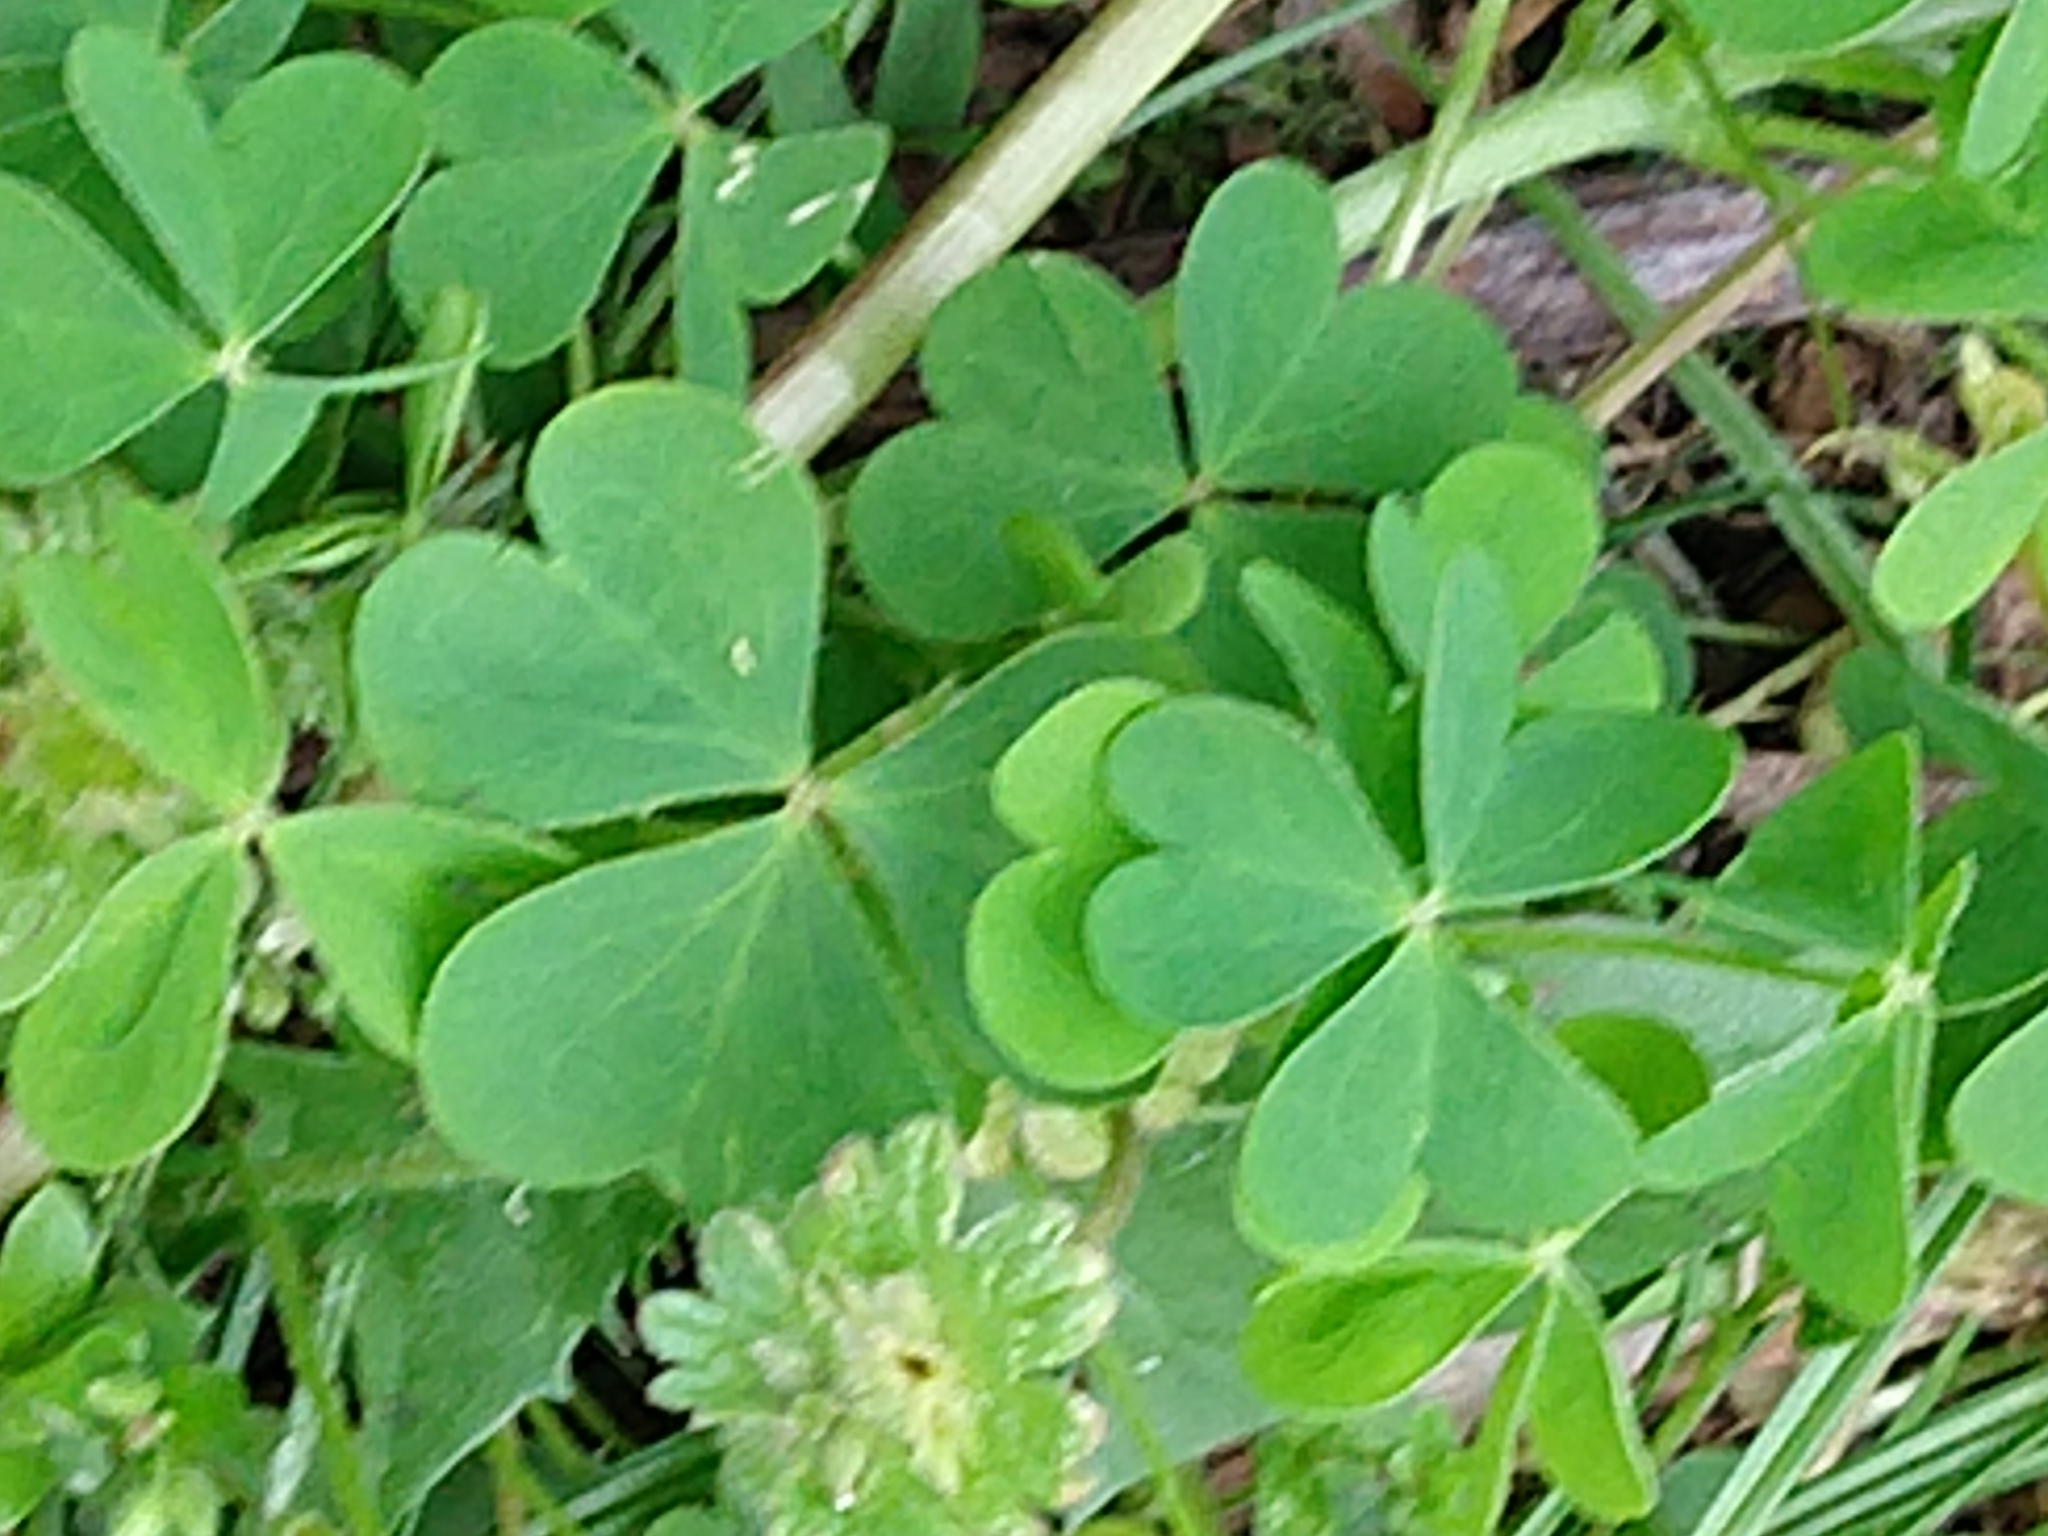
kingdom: Plantae
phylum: Tracheophyta
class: Magnoliopsida
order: Oxalidales
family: Oxalidaceae
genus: Oxalis
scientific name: Oxalis stricta
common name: Upright yellow-sorrel
